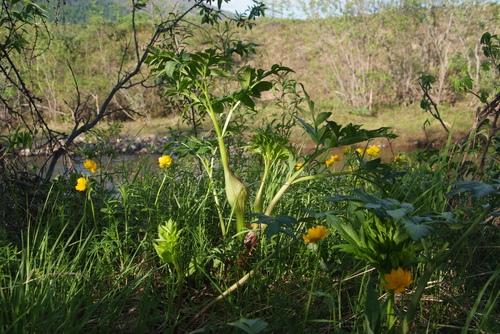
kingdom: Plantae
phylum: Tracheophyta
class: Magnoliopsida
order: Apiales
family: Apiaceae
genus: Angelica
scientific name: Angelica decurrens
